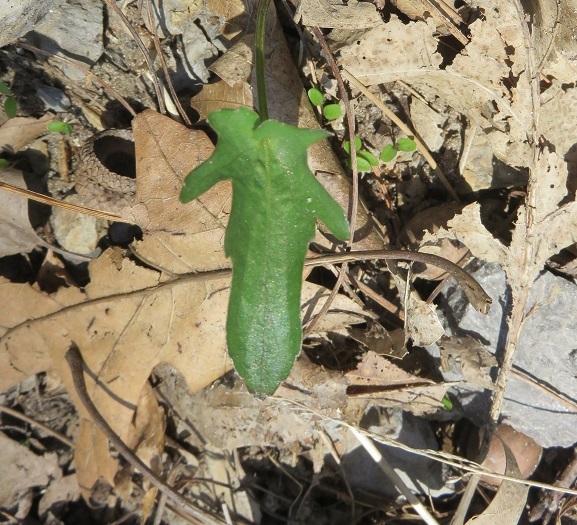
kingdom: Plantae
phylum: Tracheophyta
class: Magnoliopsida
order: Malpighiales
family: Violaceae
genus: Viola
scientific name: Viola egglestonii
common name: Glade violet
